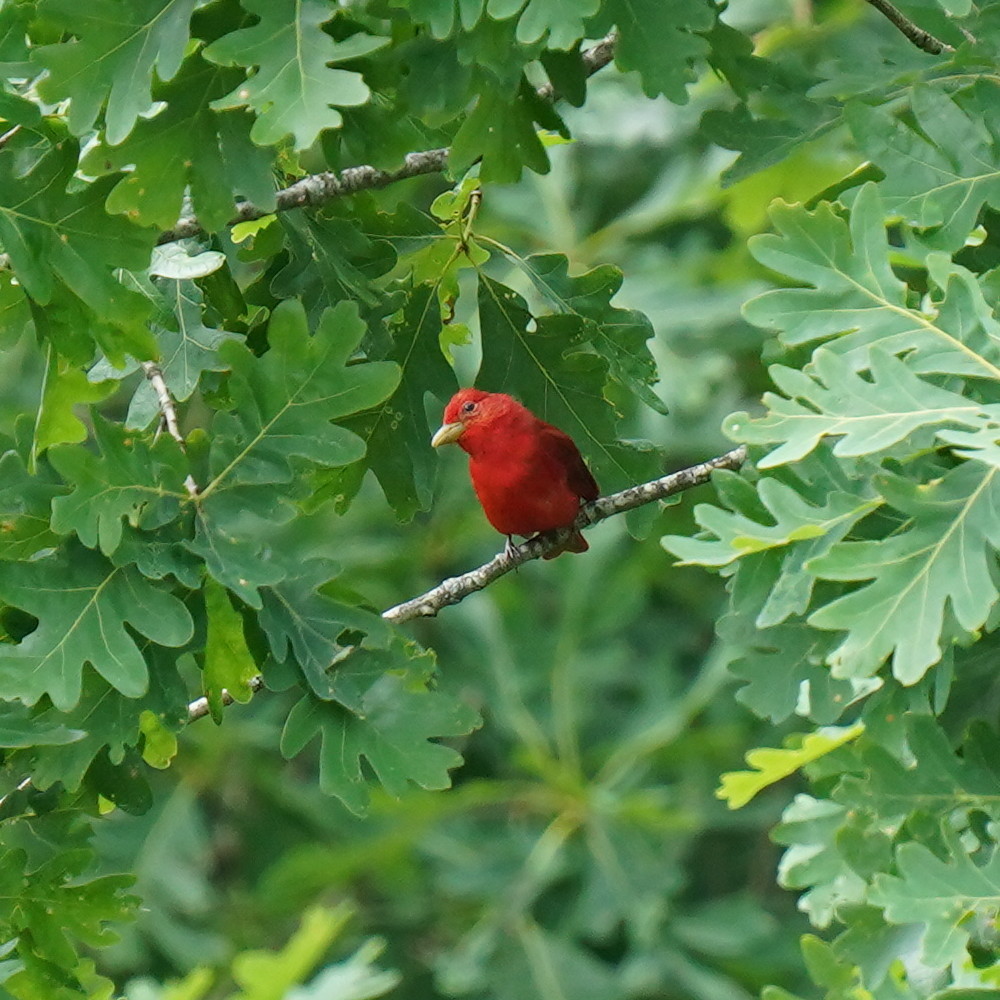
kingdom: Animalia
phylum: Chordata
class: Aves
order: Passeriformes
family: Cardinalidae
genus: Piranga
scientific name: Piranga rubra
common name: Summer tanager
